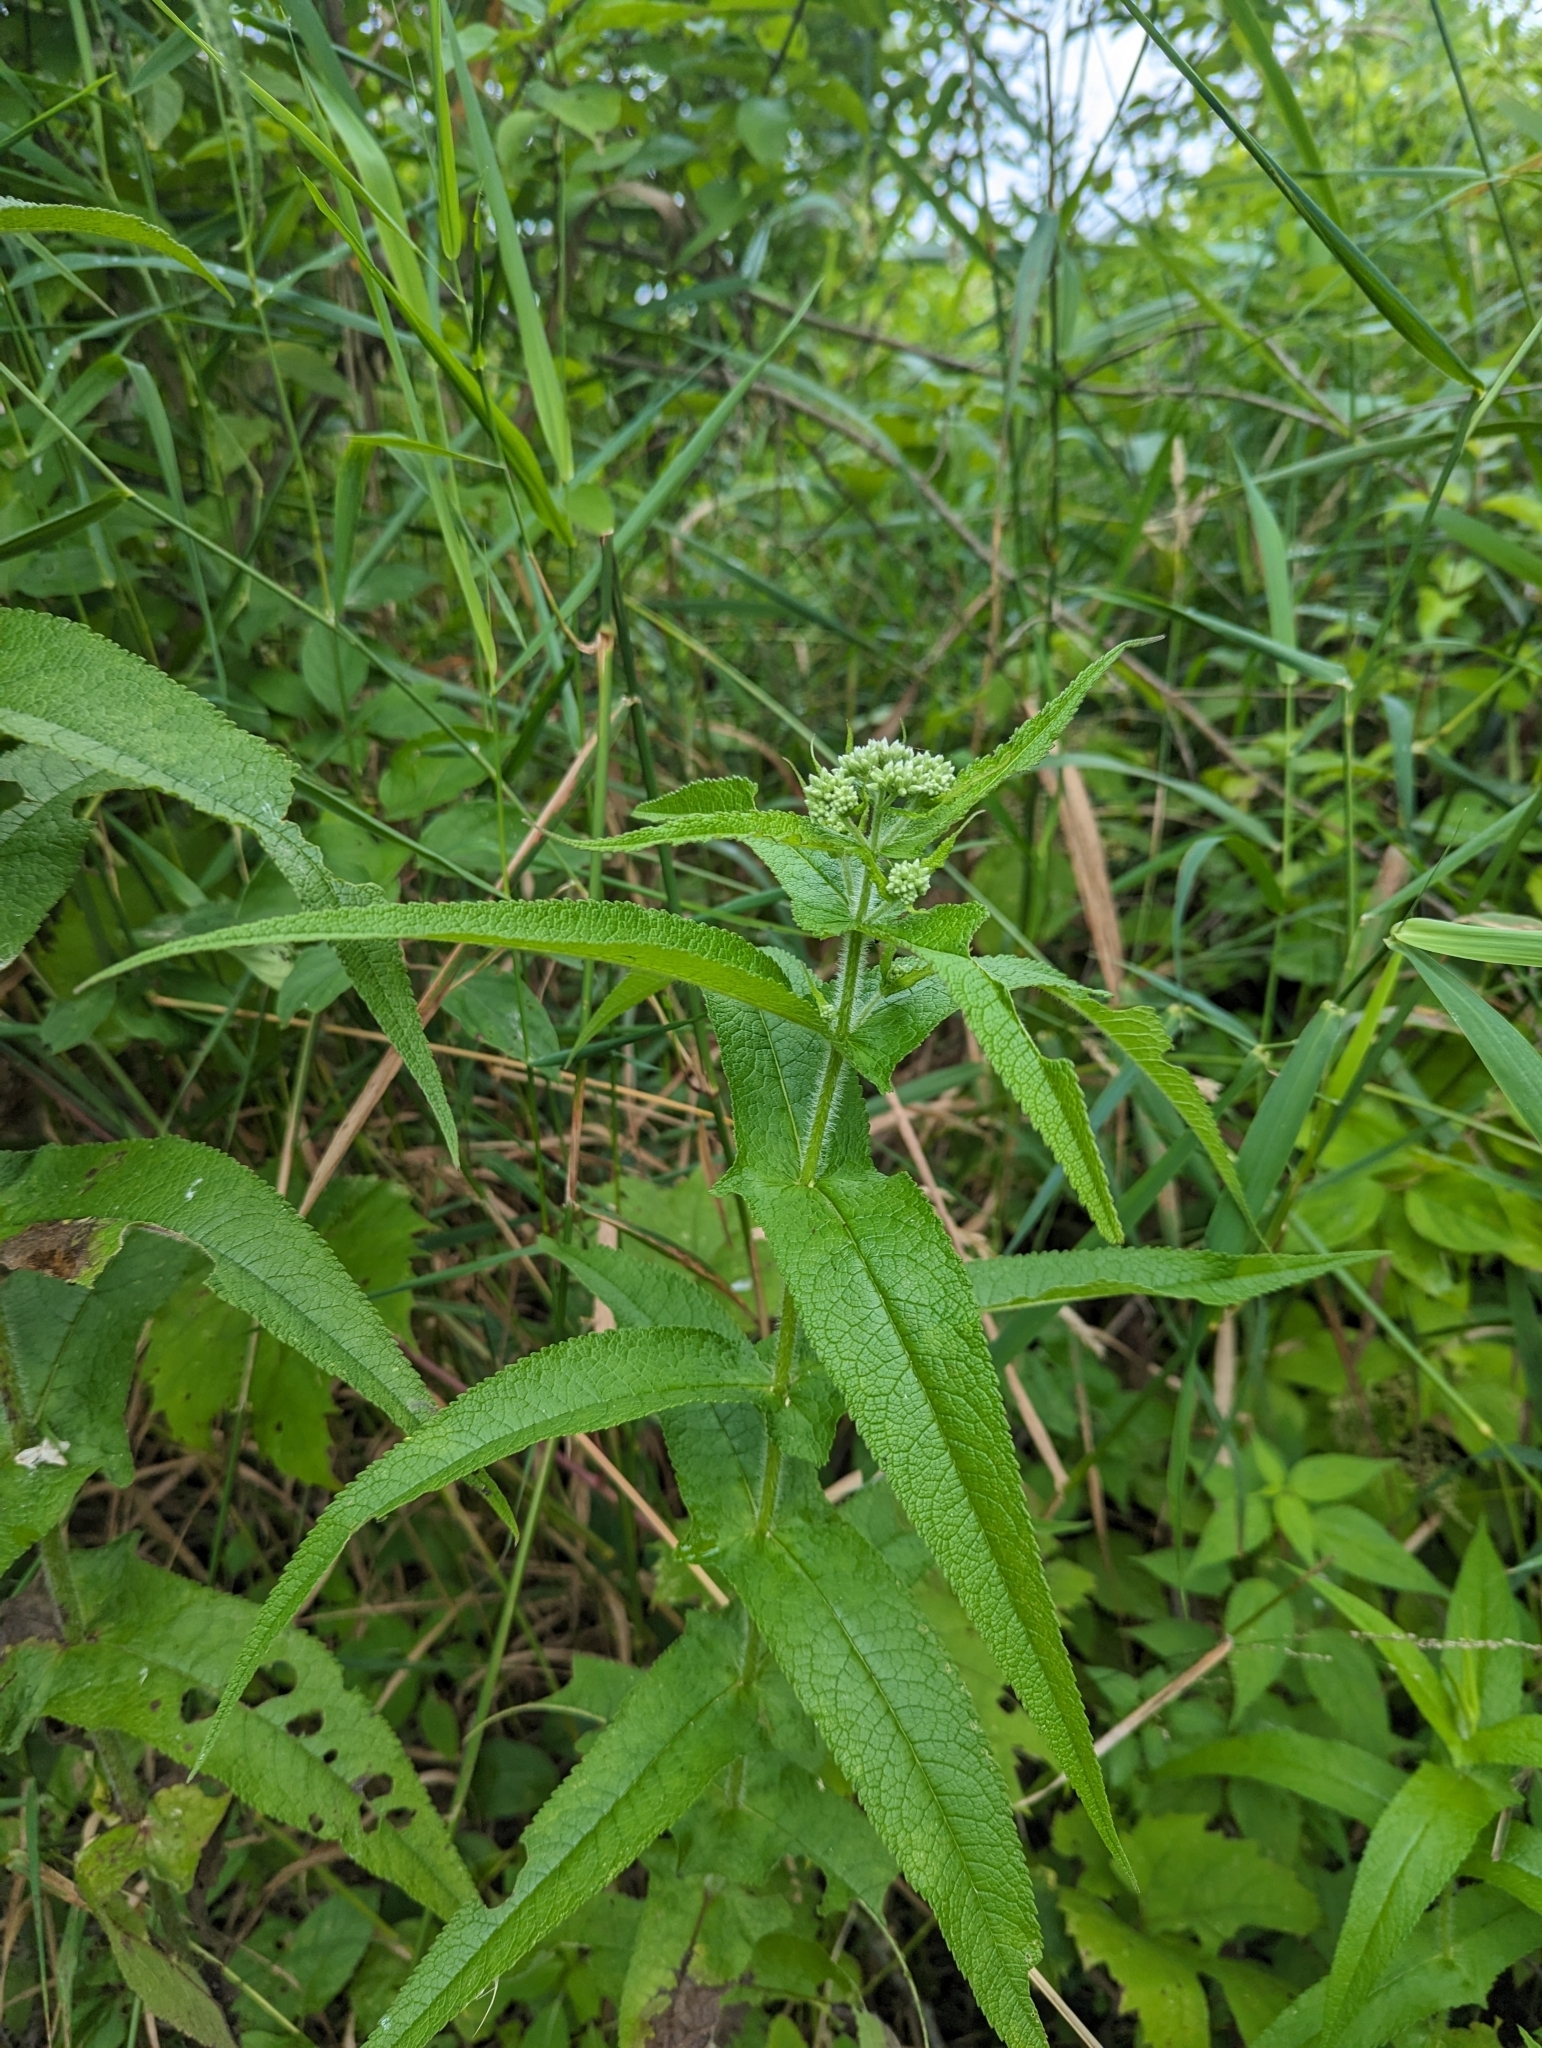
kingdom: Plantae
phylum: Tracheophyta
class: Magnoliopsida
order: Asterales
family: Asteraceae
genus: Eupatorium
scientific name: Eupatorium perfoliatum
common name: Boneset
